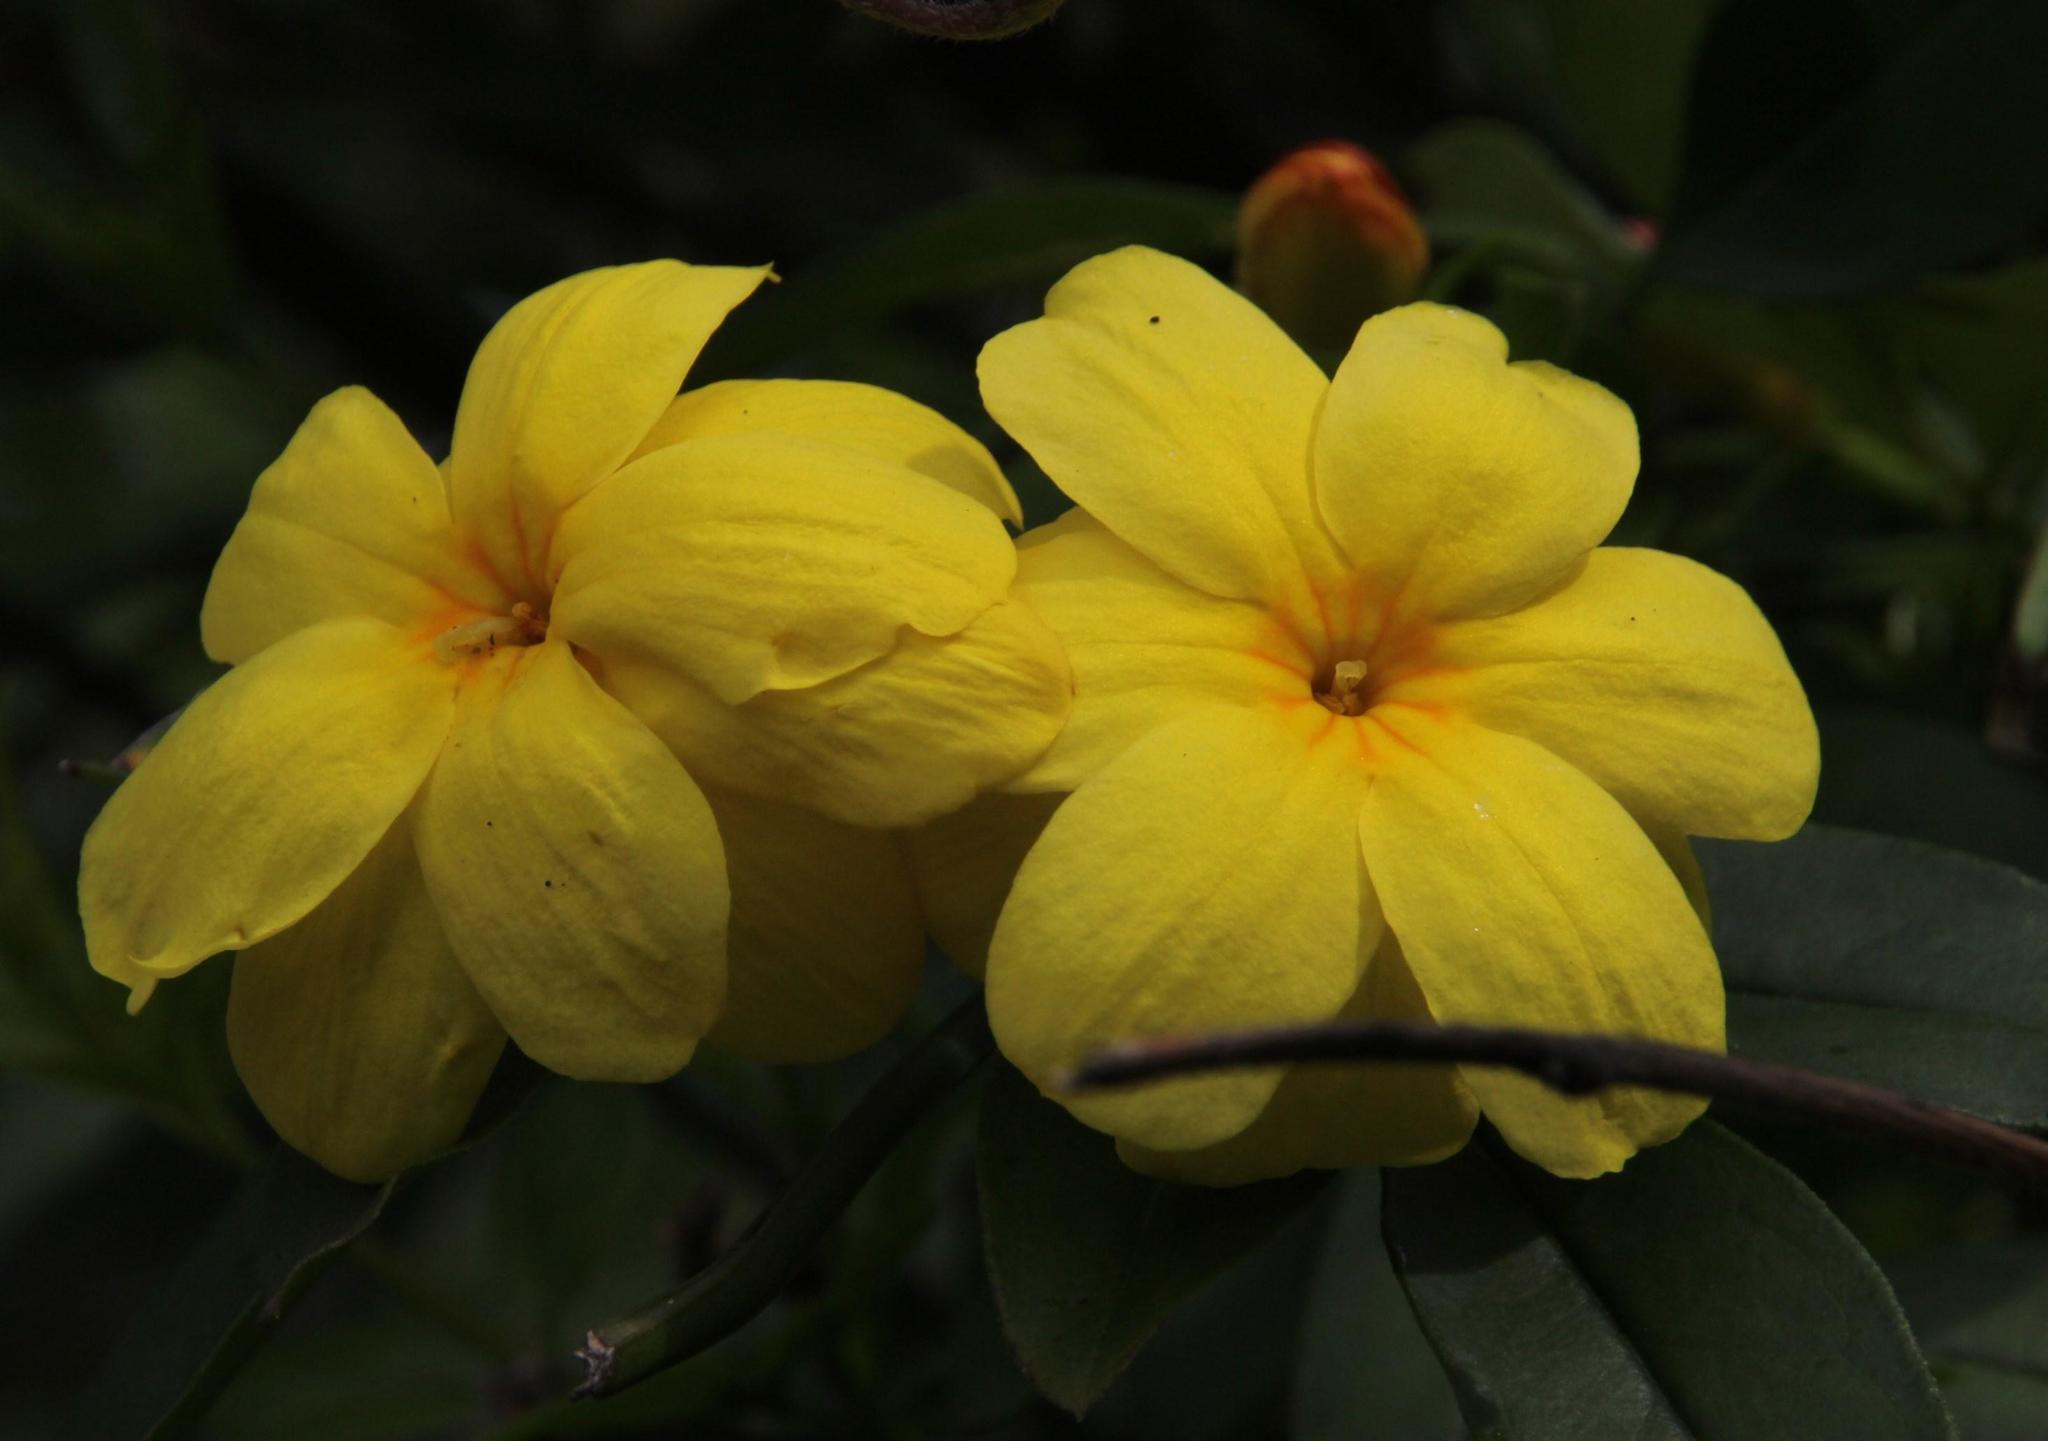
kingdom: Plantae
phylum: Tracheophyta
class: Magnoliopsida
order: Lamiales
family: Oleaceae
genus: Jasminum
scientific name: Jasminum mesnyi
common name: Japanese jasmine
